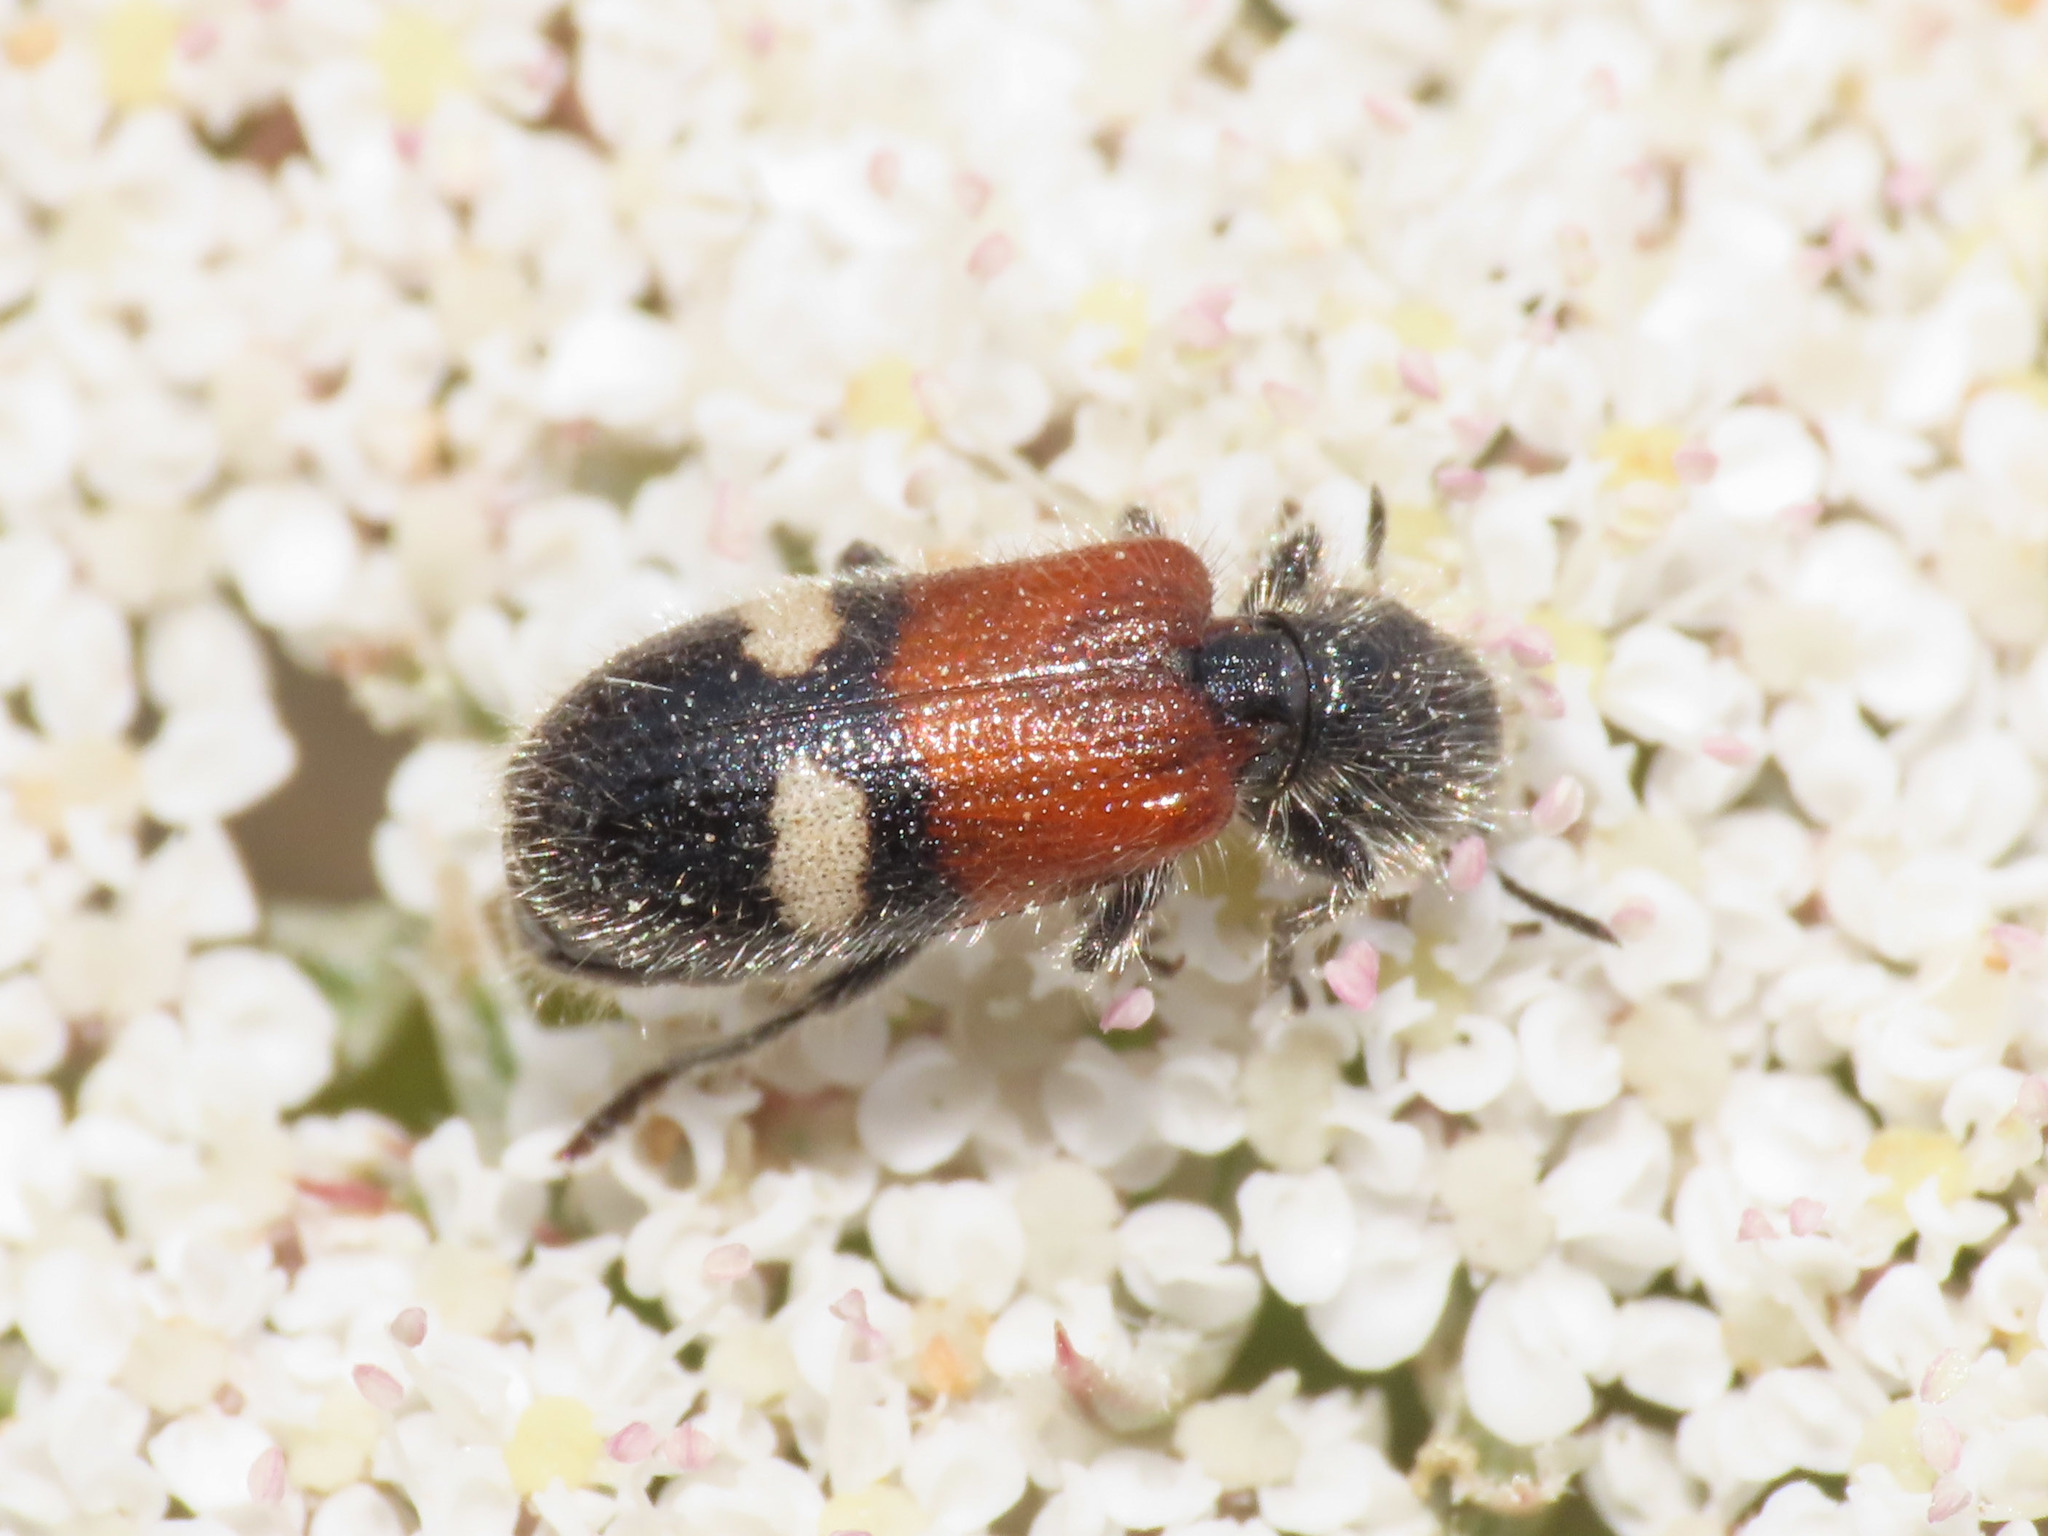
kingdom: Animalia
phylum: Arthropoda
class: Insecta
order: Coleoptera
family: Cleridae
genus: Tilloidea
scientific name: Tilloidea transversalis
